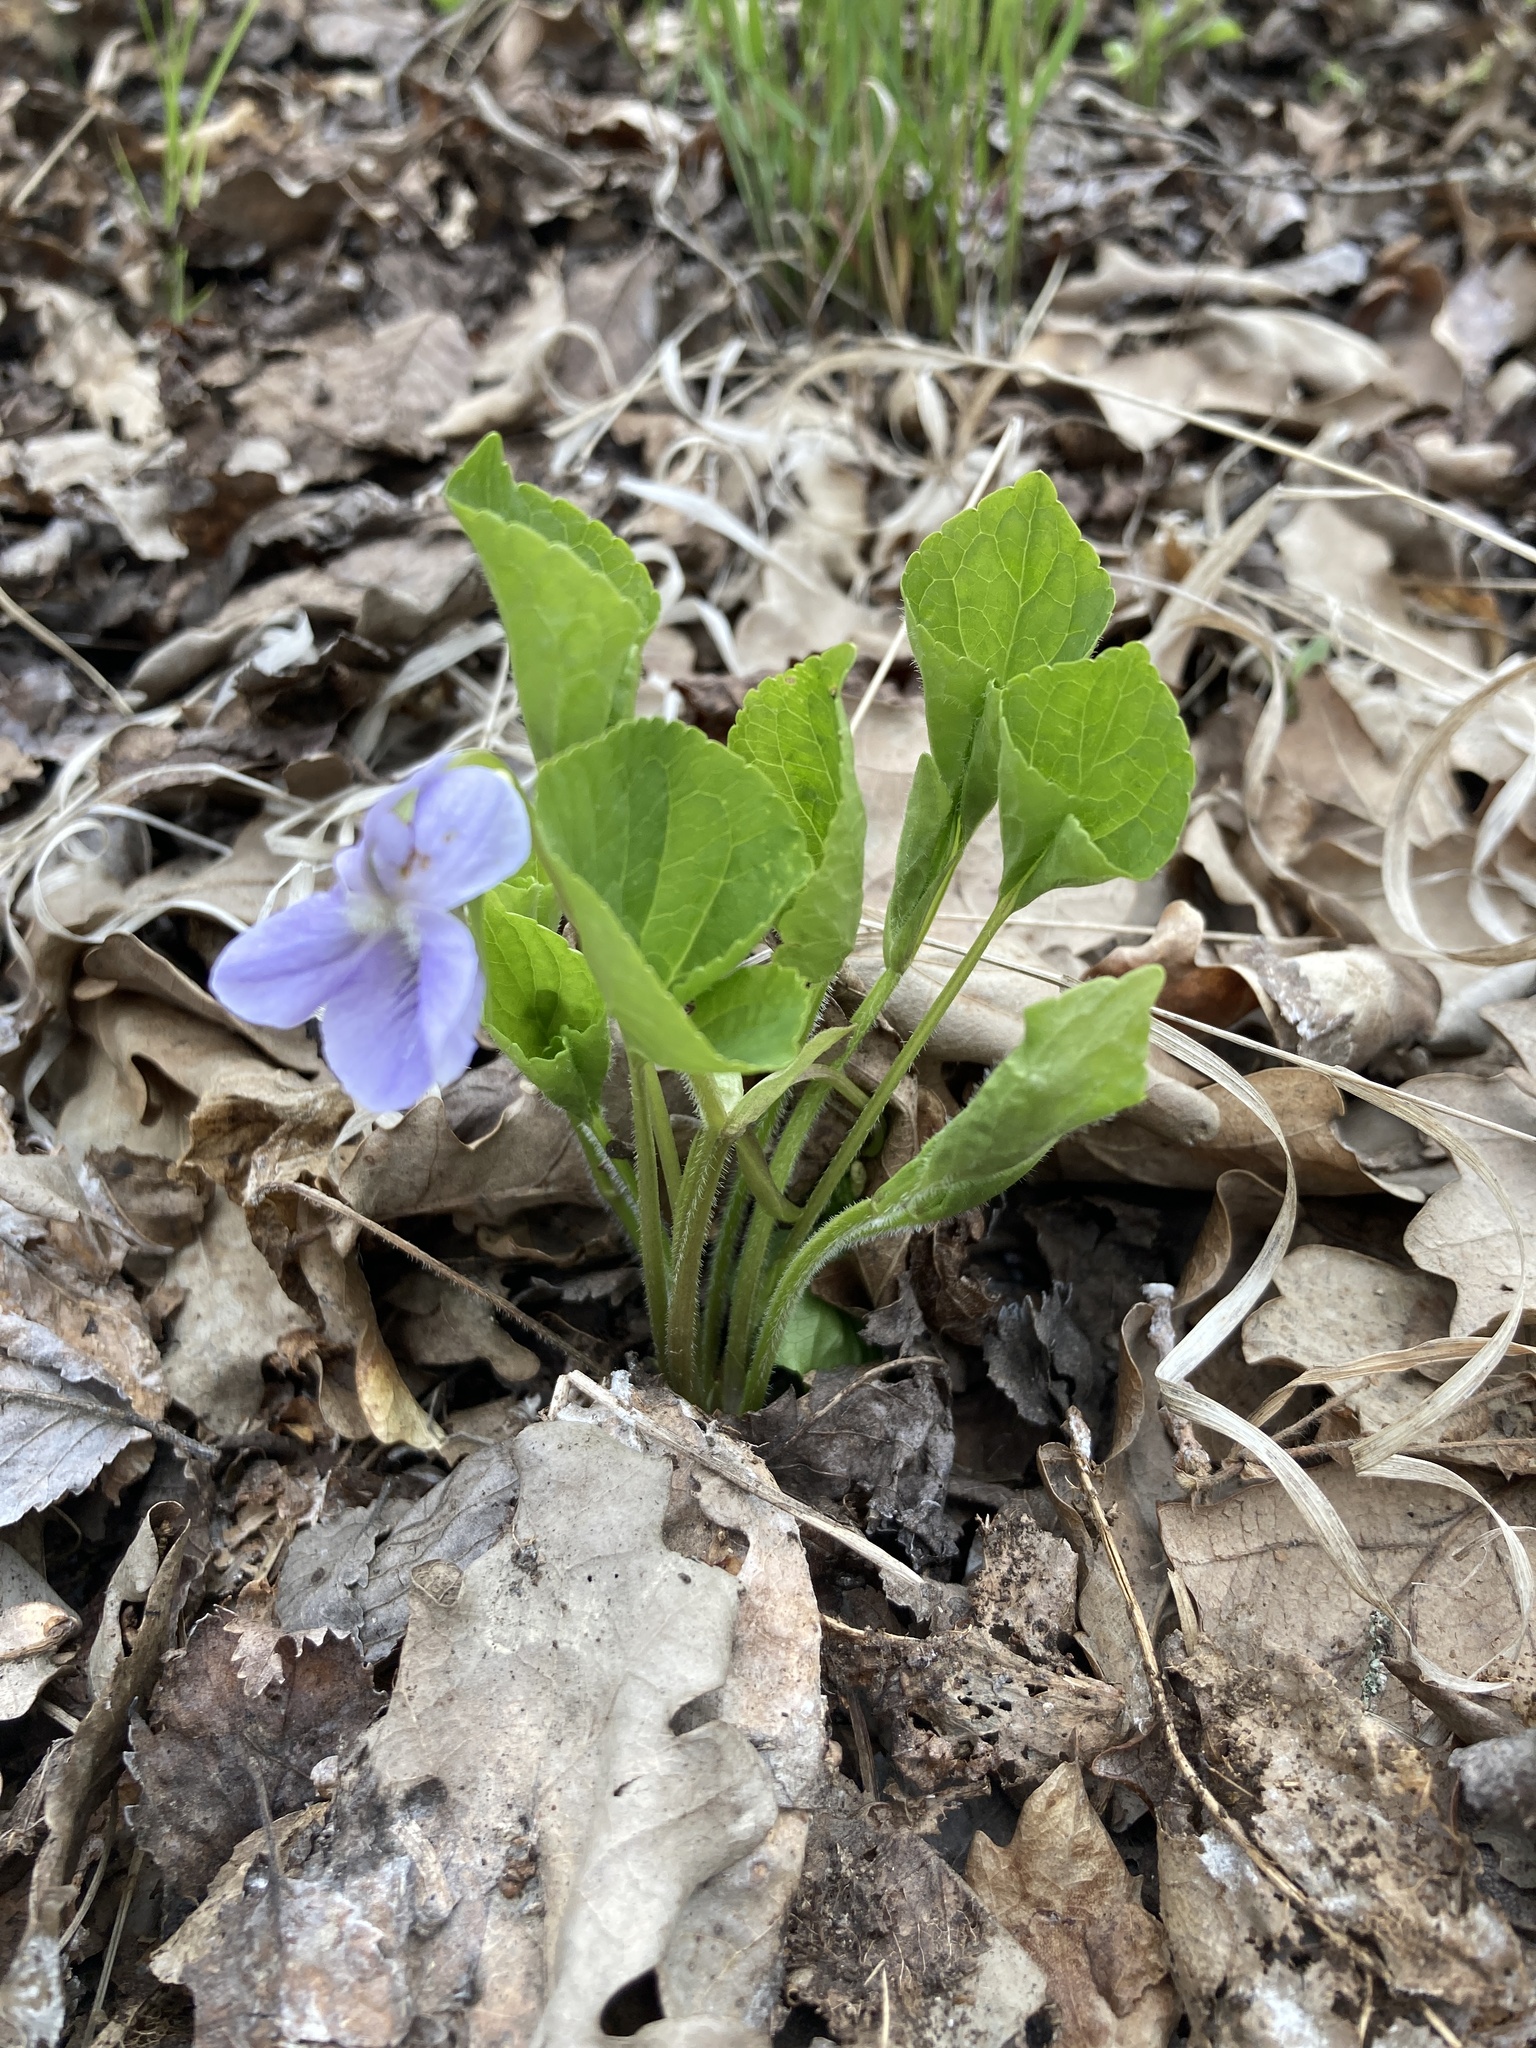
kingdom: Plantae
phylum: Tracheophyta
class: Magnoliopsida
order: Malpighiales
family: Violaceae
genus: Viola
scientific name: Viola mirabilis
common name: Wonder violet
